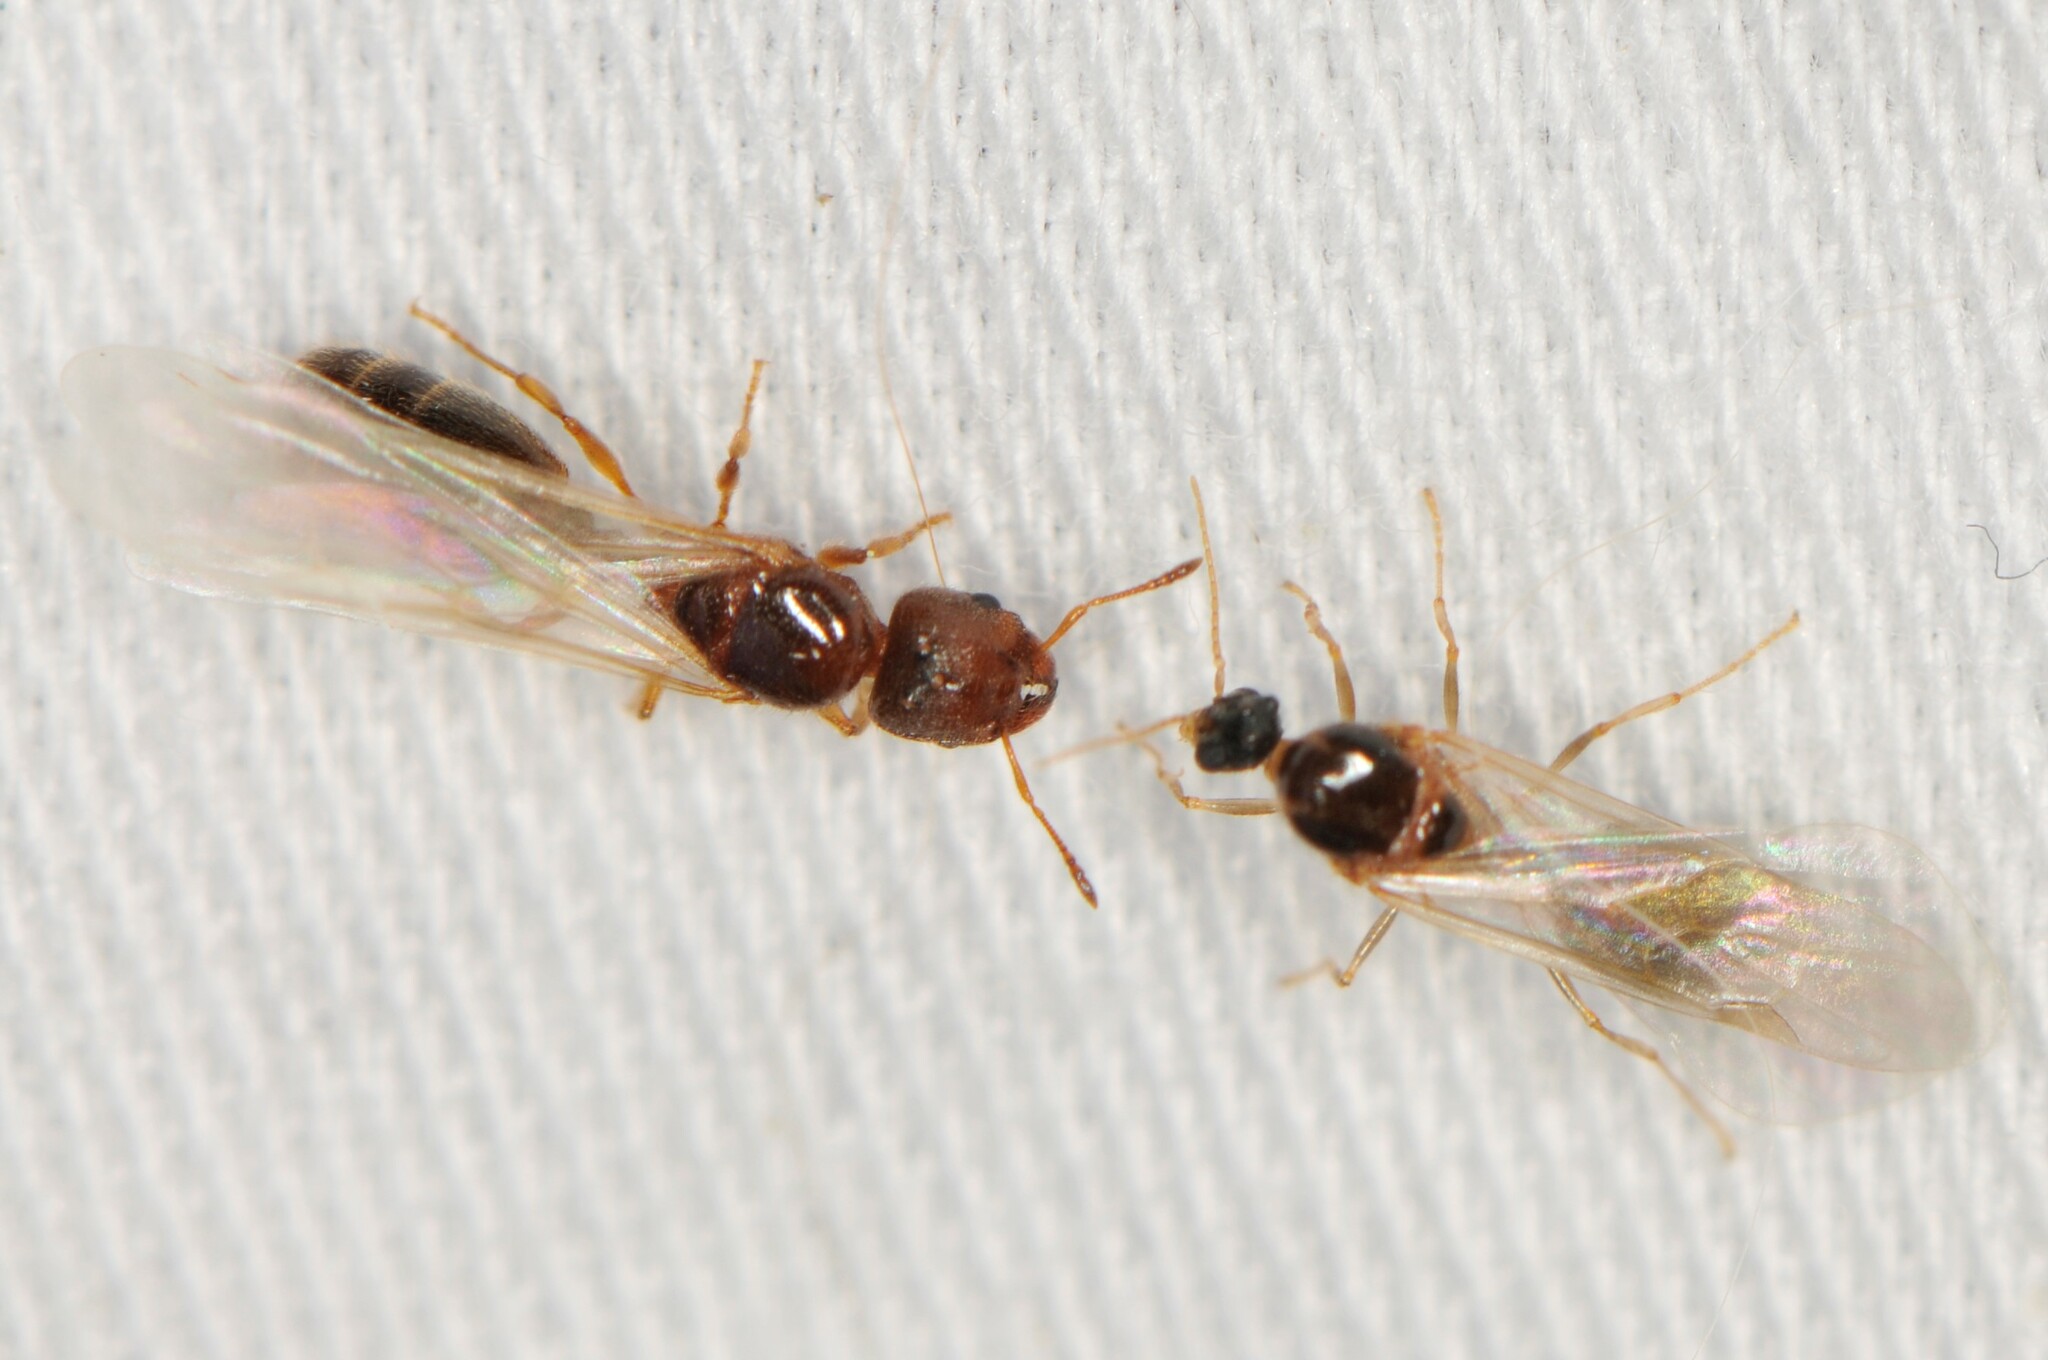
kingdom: Animalia
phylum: Arthropoda
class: Insecta
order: Hymenoptera
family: Formicidae
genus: Pheidole
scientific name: Pheidole
